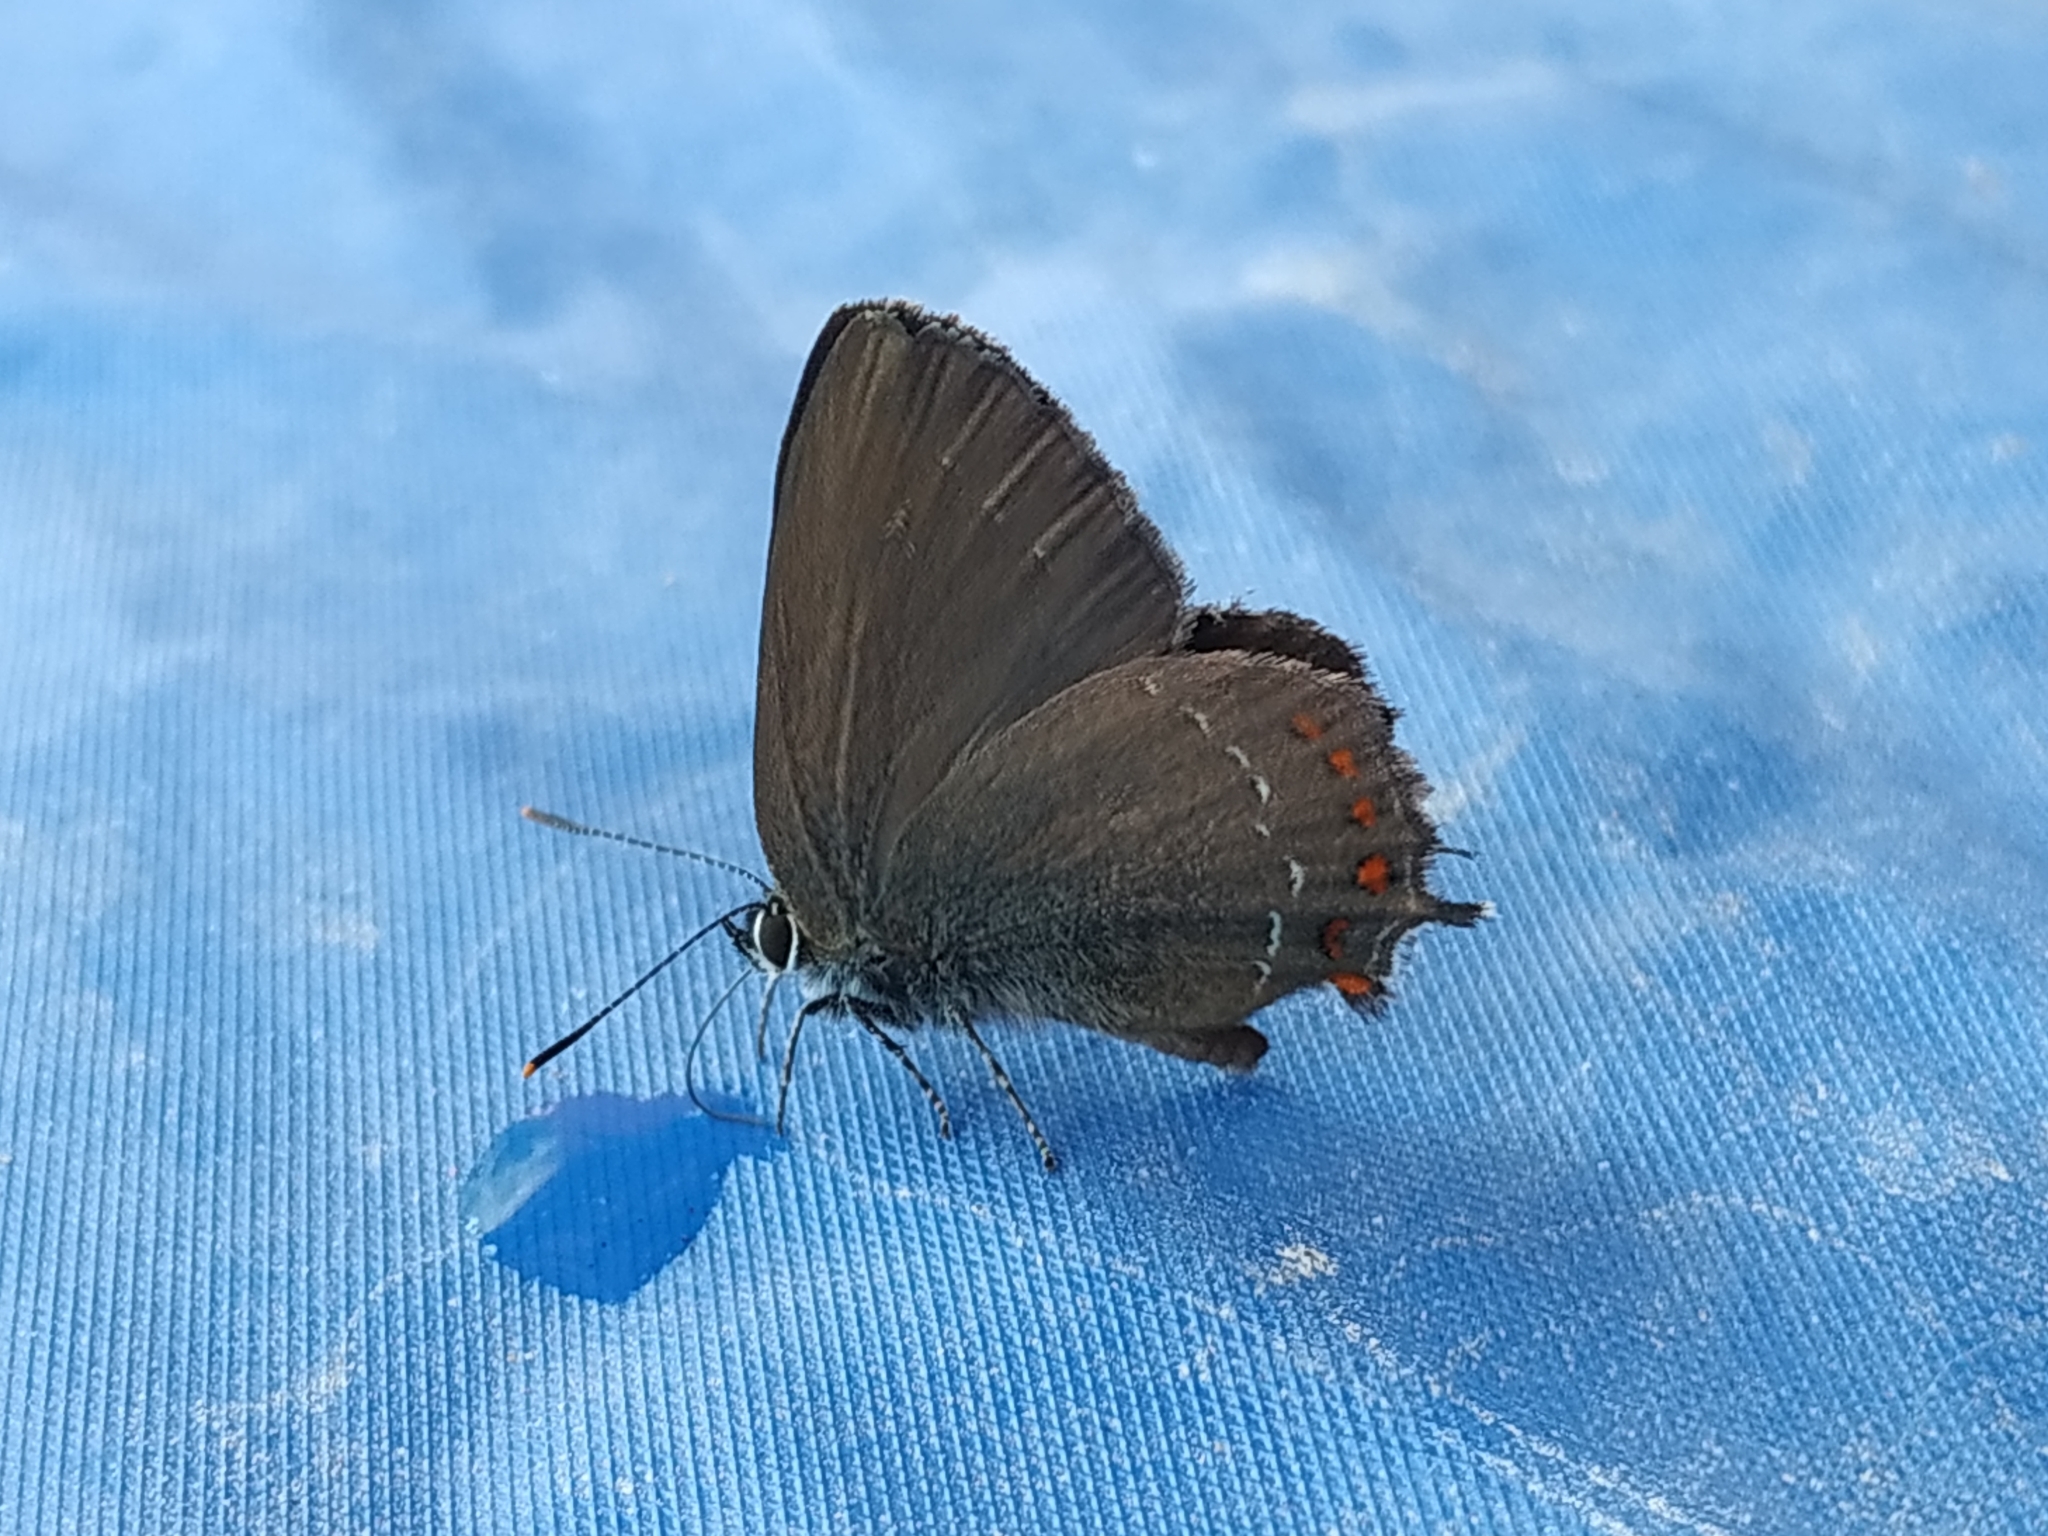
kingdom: Animalia
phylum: Arthropoda
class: Insecta
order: Lepidoptera
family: Lycaenidae
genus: Fixsenia
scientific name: Fixsenia esculi
